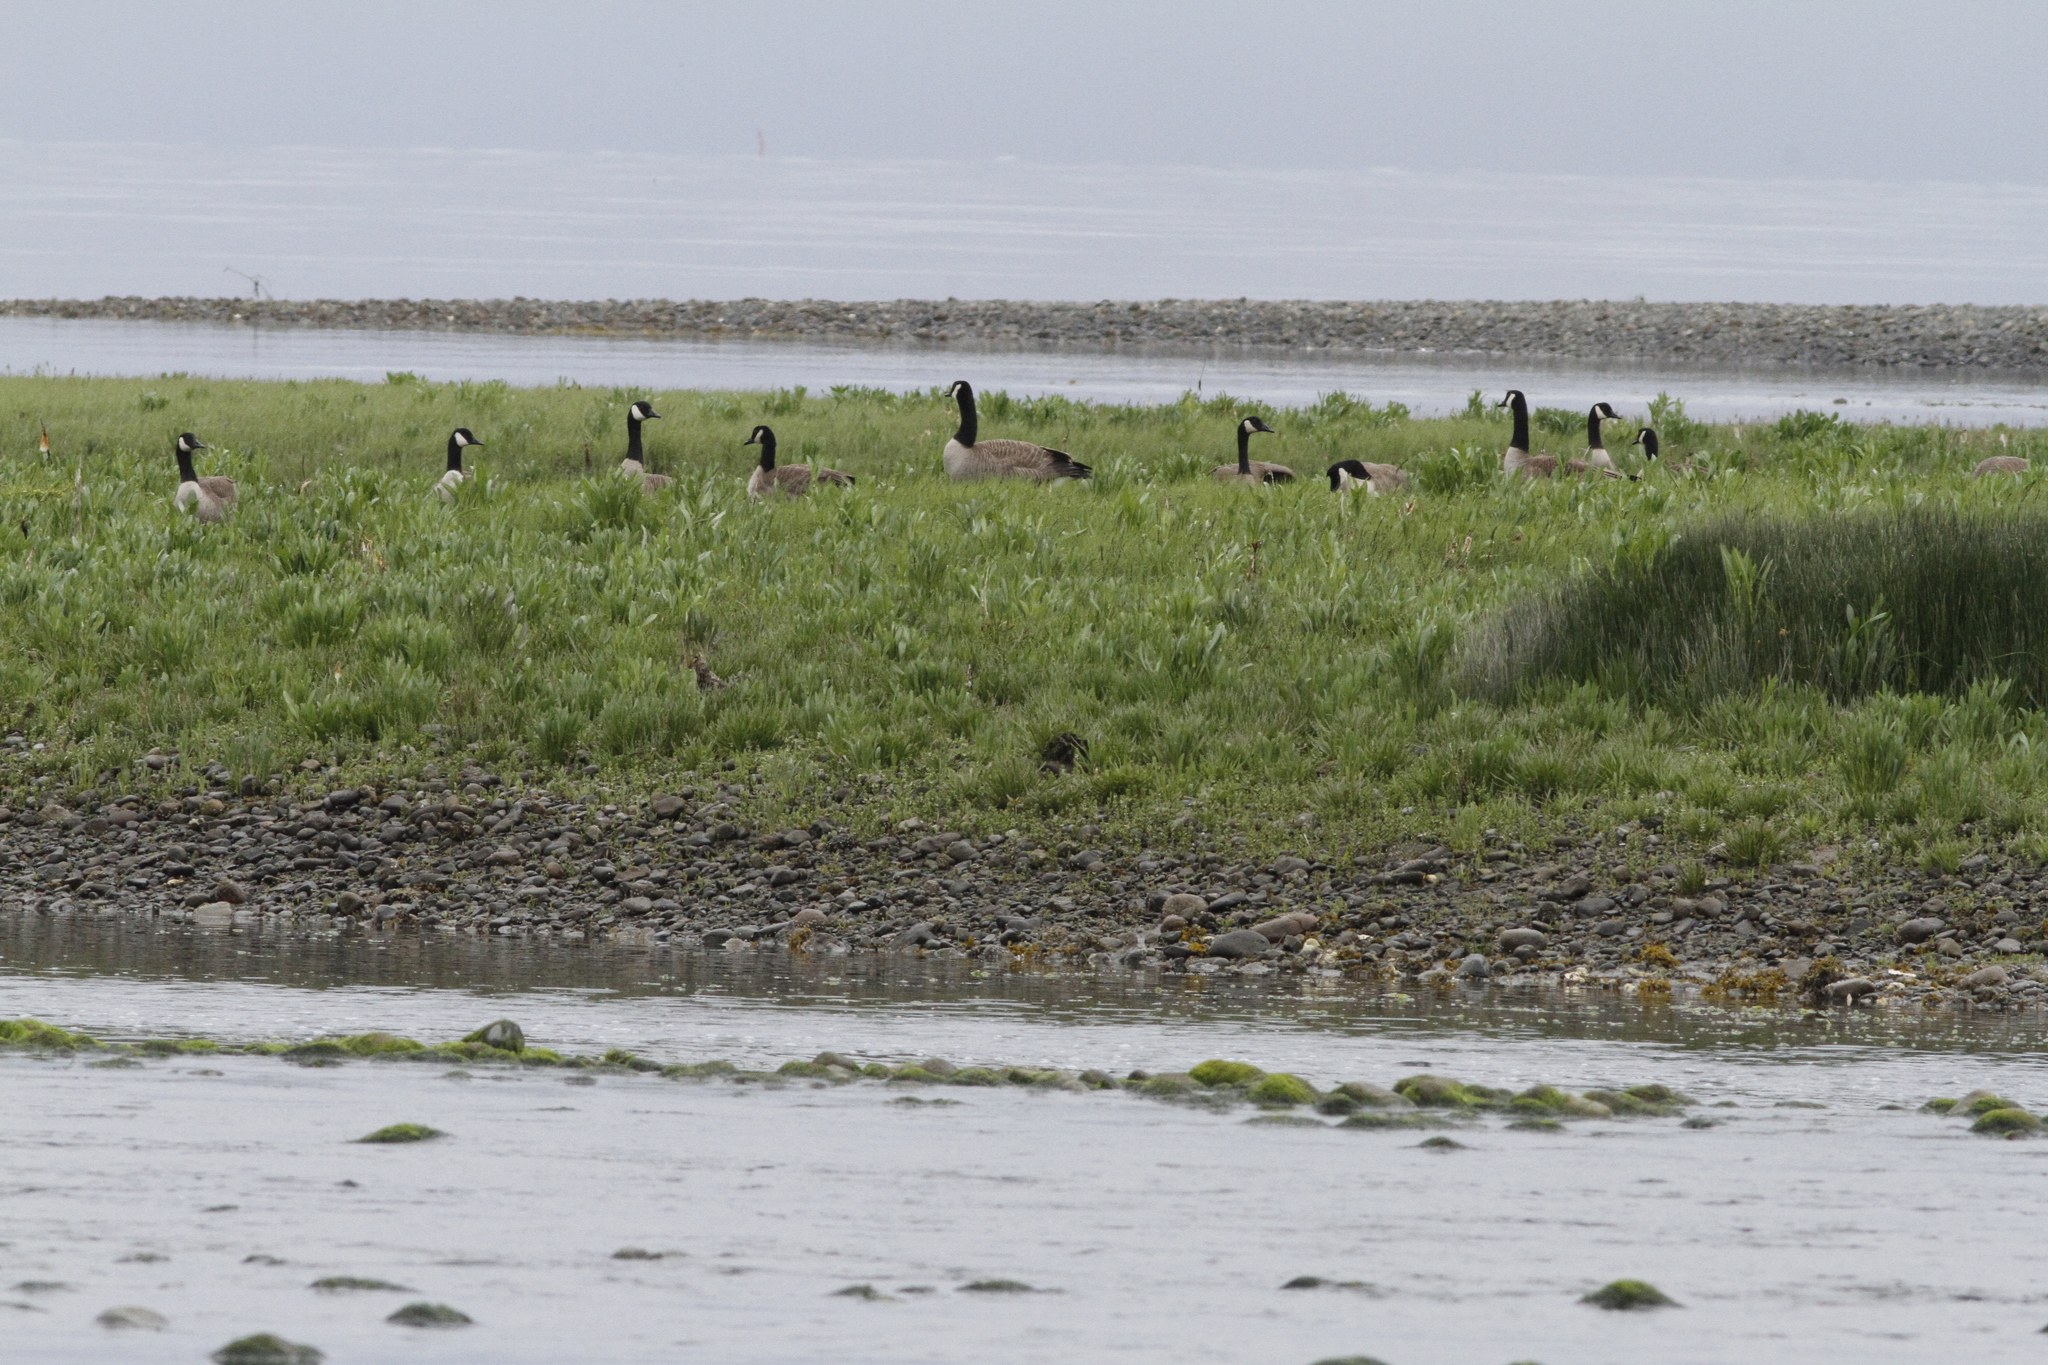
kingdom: Animalia
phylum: Chordata
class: Aves
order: Anseriformes
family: Anatidae
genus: Branta
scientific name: Branta canadensis
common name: Canada goose
